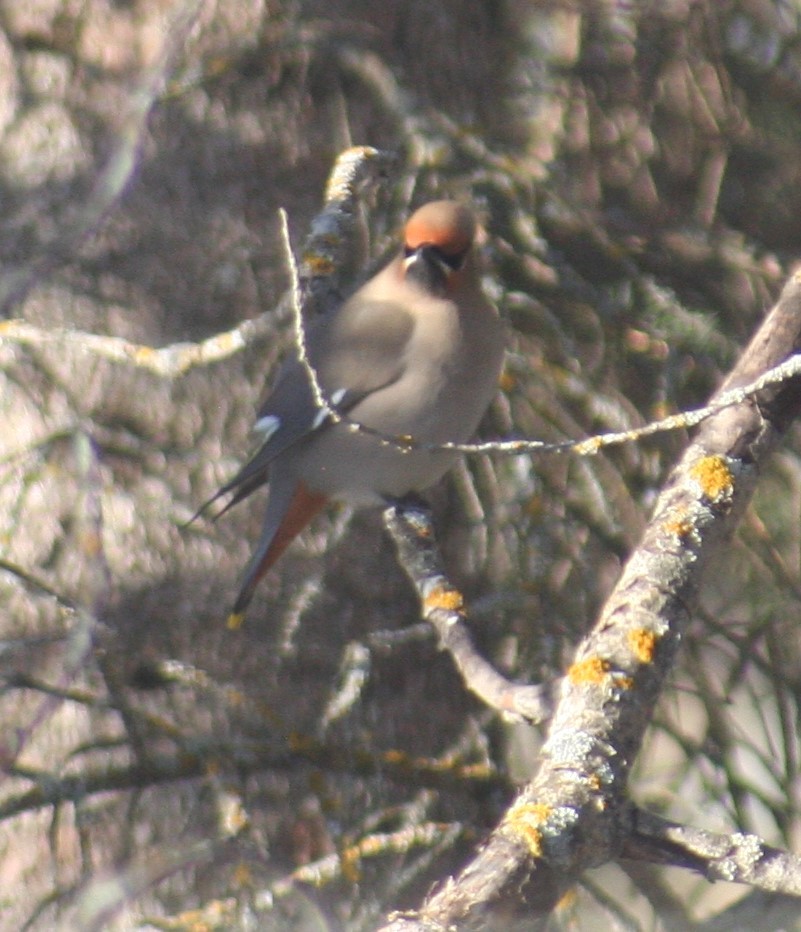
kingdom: Animalia
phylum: Chordata
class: Aves
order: Passeriformes
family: Bombycillidae
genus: Bombycilla
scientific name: Bombycilla garrulus
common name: Bohemian waxwing
